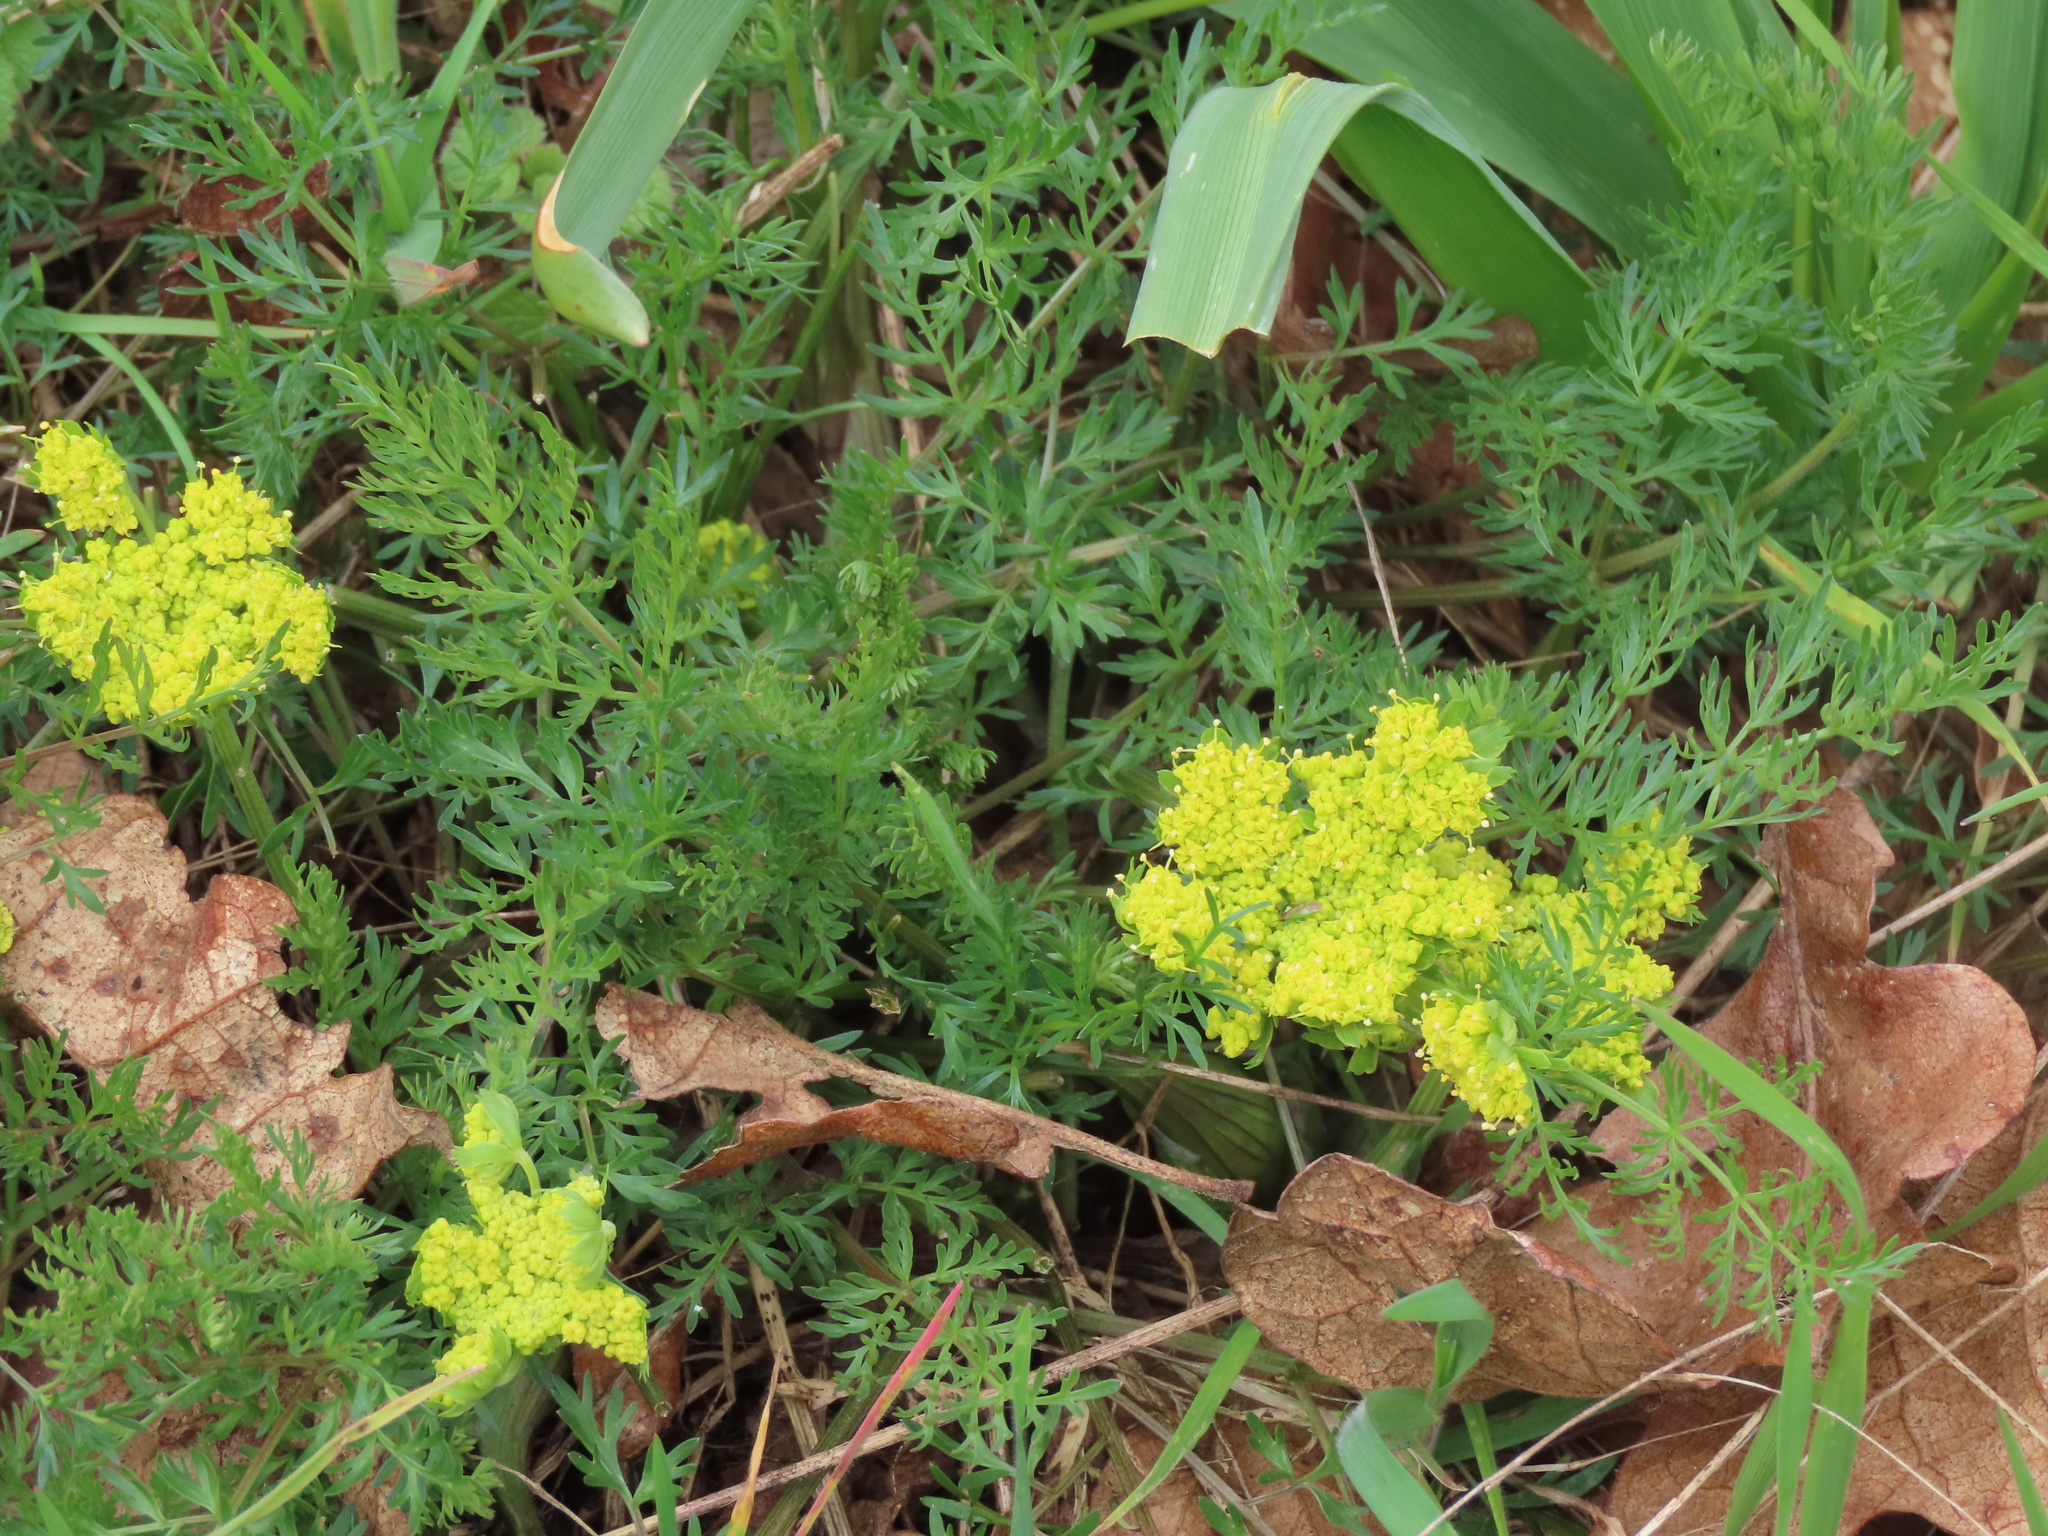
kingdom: Plantae
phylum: Tracheophyta
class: Magnoliopsida
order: Apiales
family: Apiaceae
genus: Lomatium
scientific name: Lomatium utriculatum
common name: Fine-leaf desert-parsley
